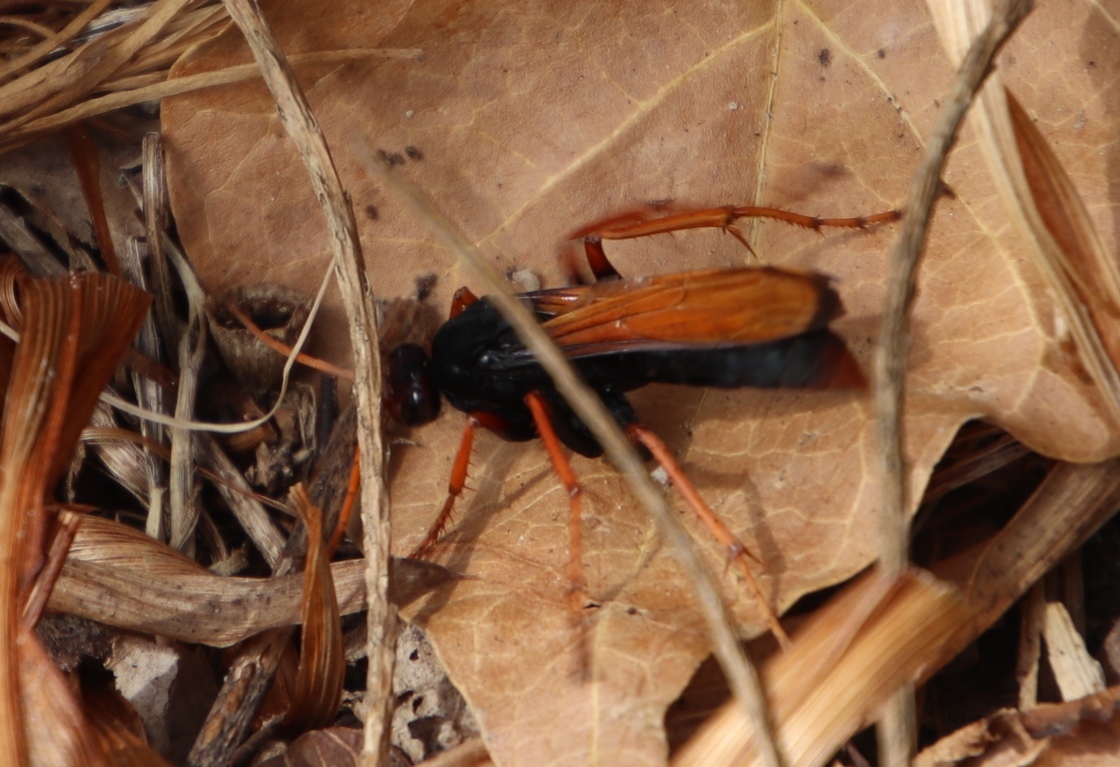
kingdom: Animalia
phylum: Arthropoda
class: Insecta
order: Hymenoptera
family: Pompilidae
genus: Hemipepsis
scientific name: Hemipepsis capensis
